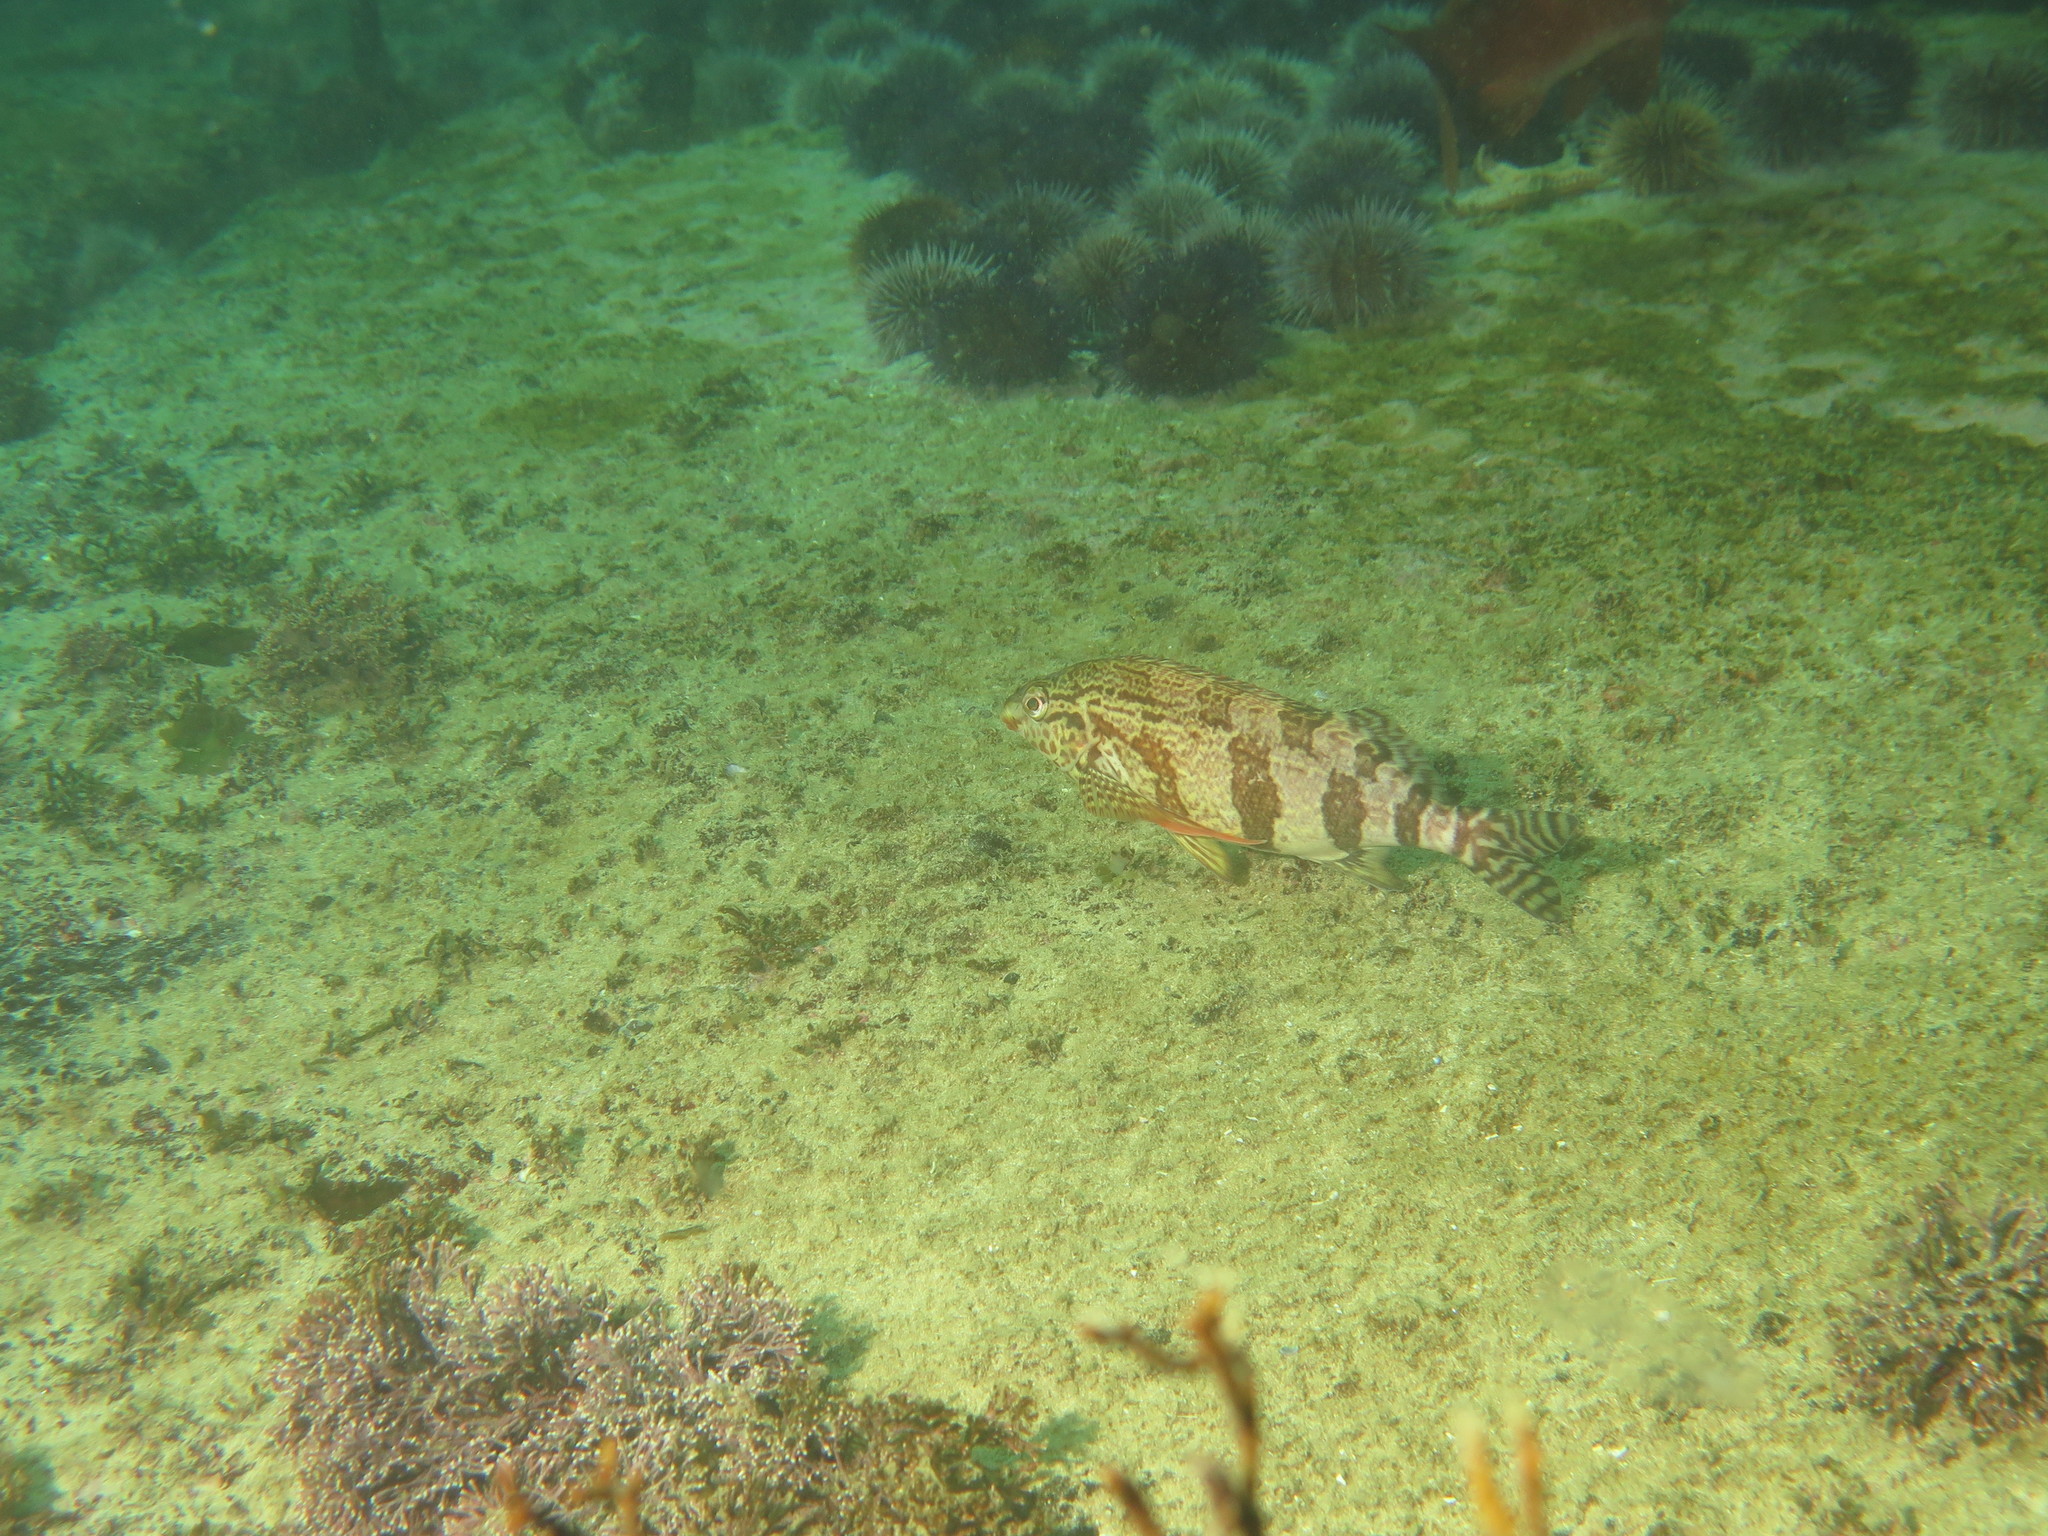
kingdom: Animalia
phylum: Chordata
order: Perciformes
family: Cheilodactylidae
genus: Cheilodactylus
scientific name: Cheilodactylus fasciatus
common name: Redfingers
